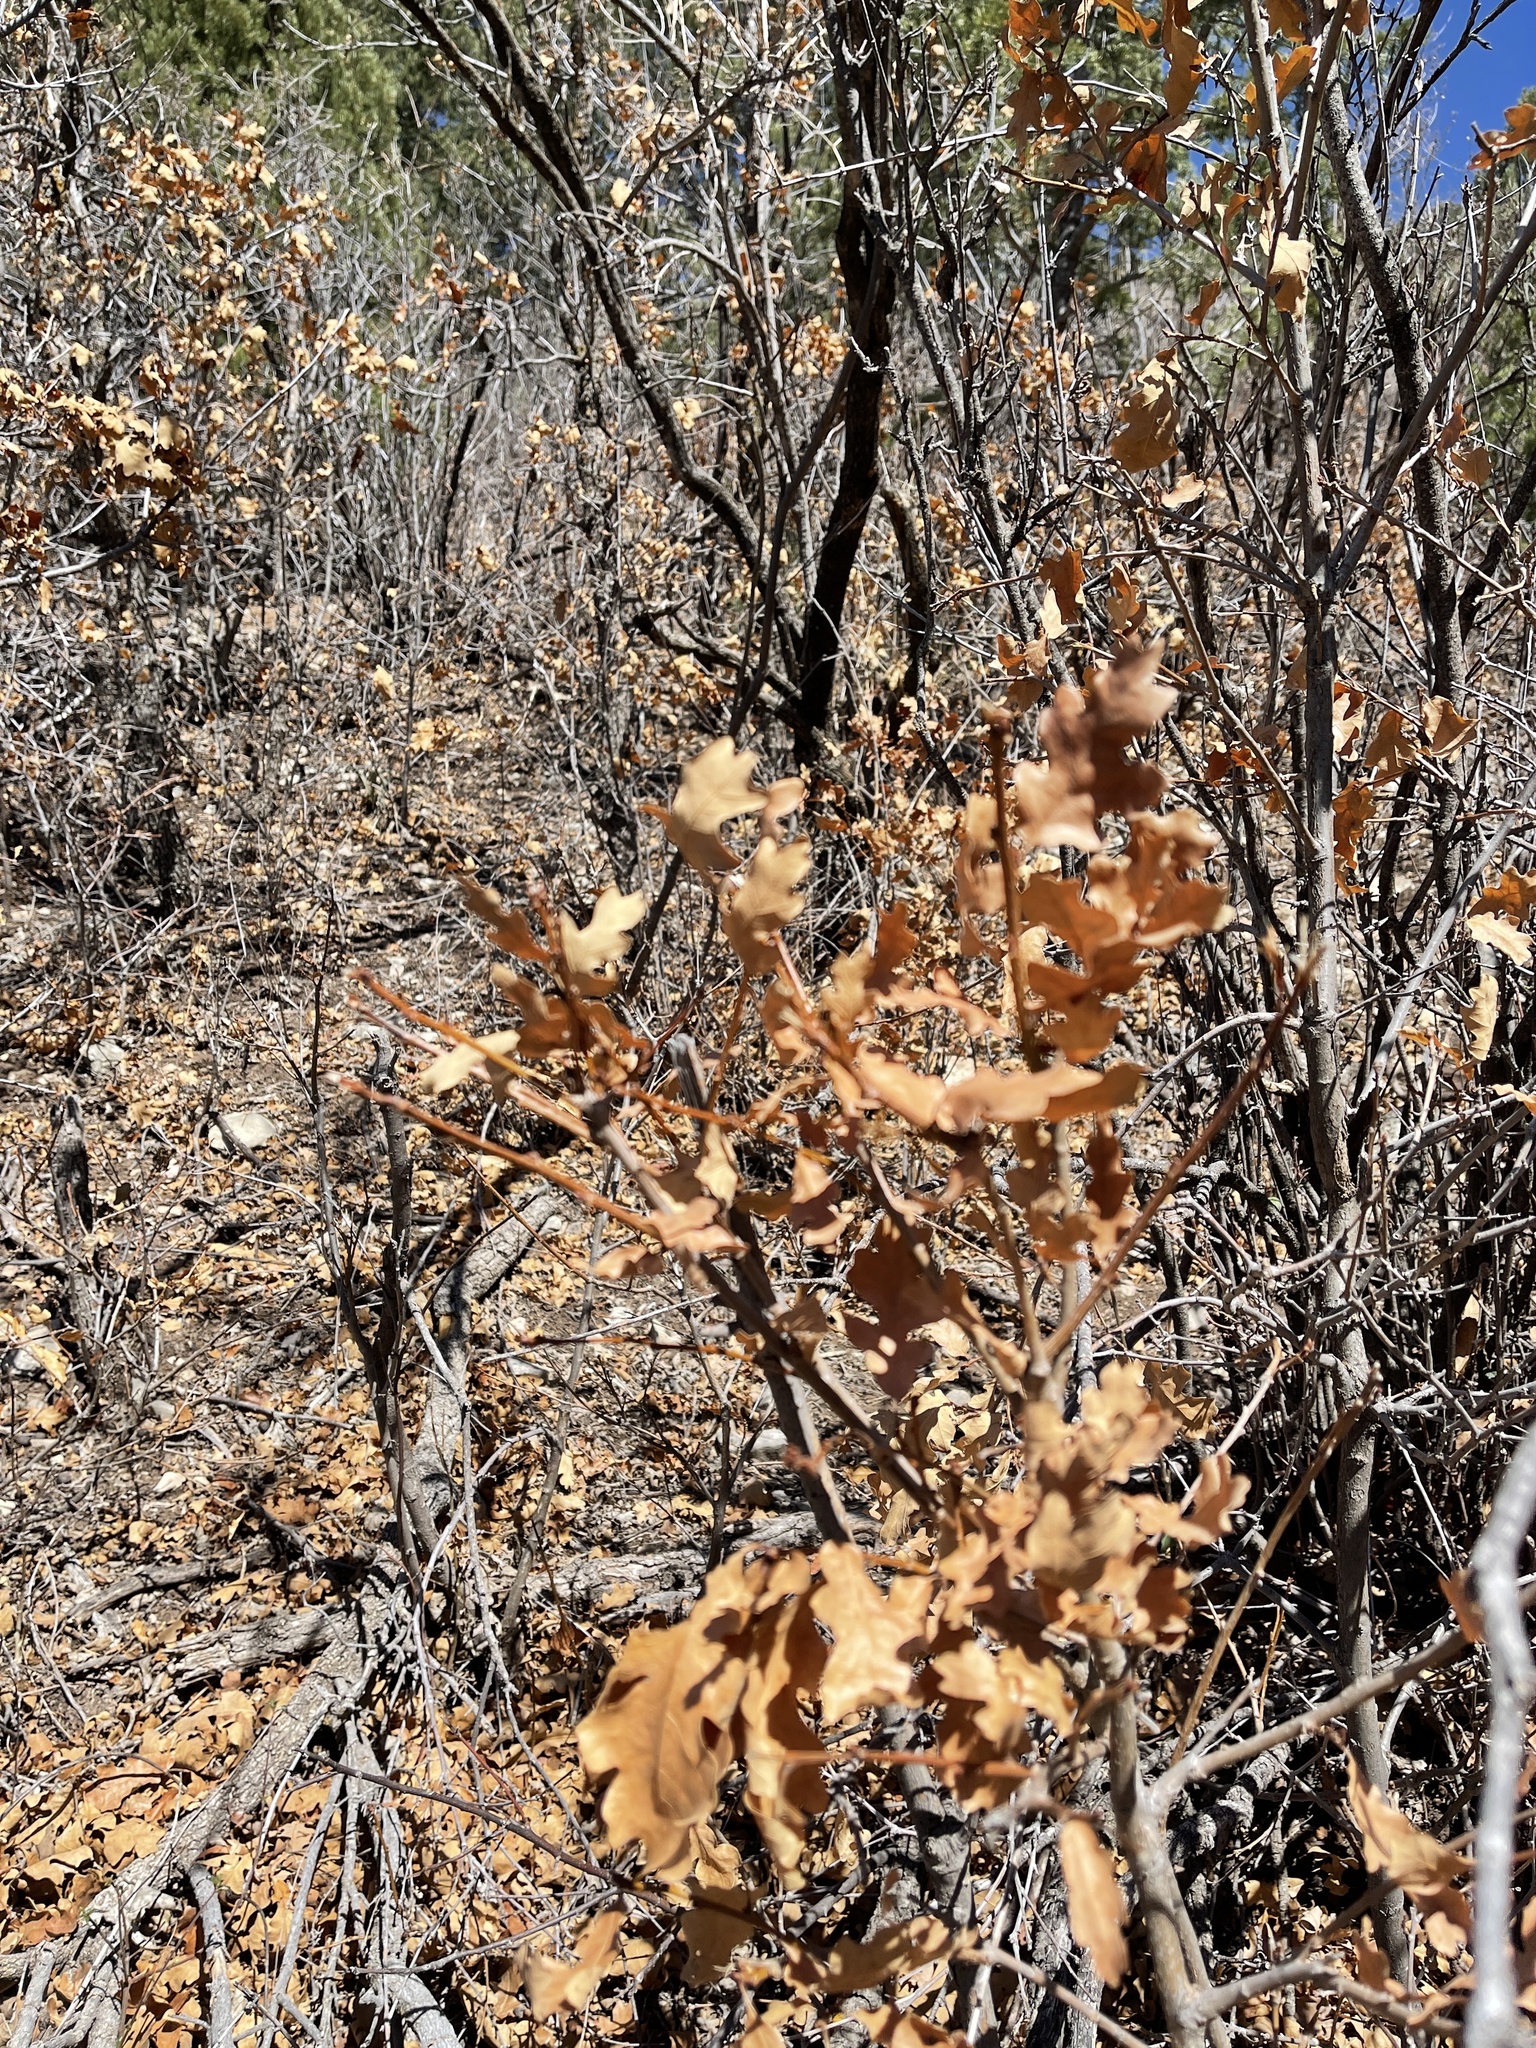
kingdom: Plantae
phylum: Tracheophyta
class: Magnoliopsida
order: Fagales
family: Fagaceae
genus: Quercus
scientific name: Quercus gambelii
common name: Gambel oak
